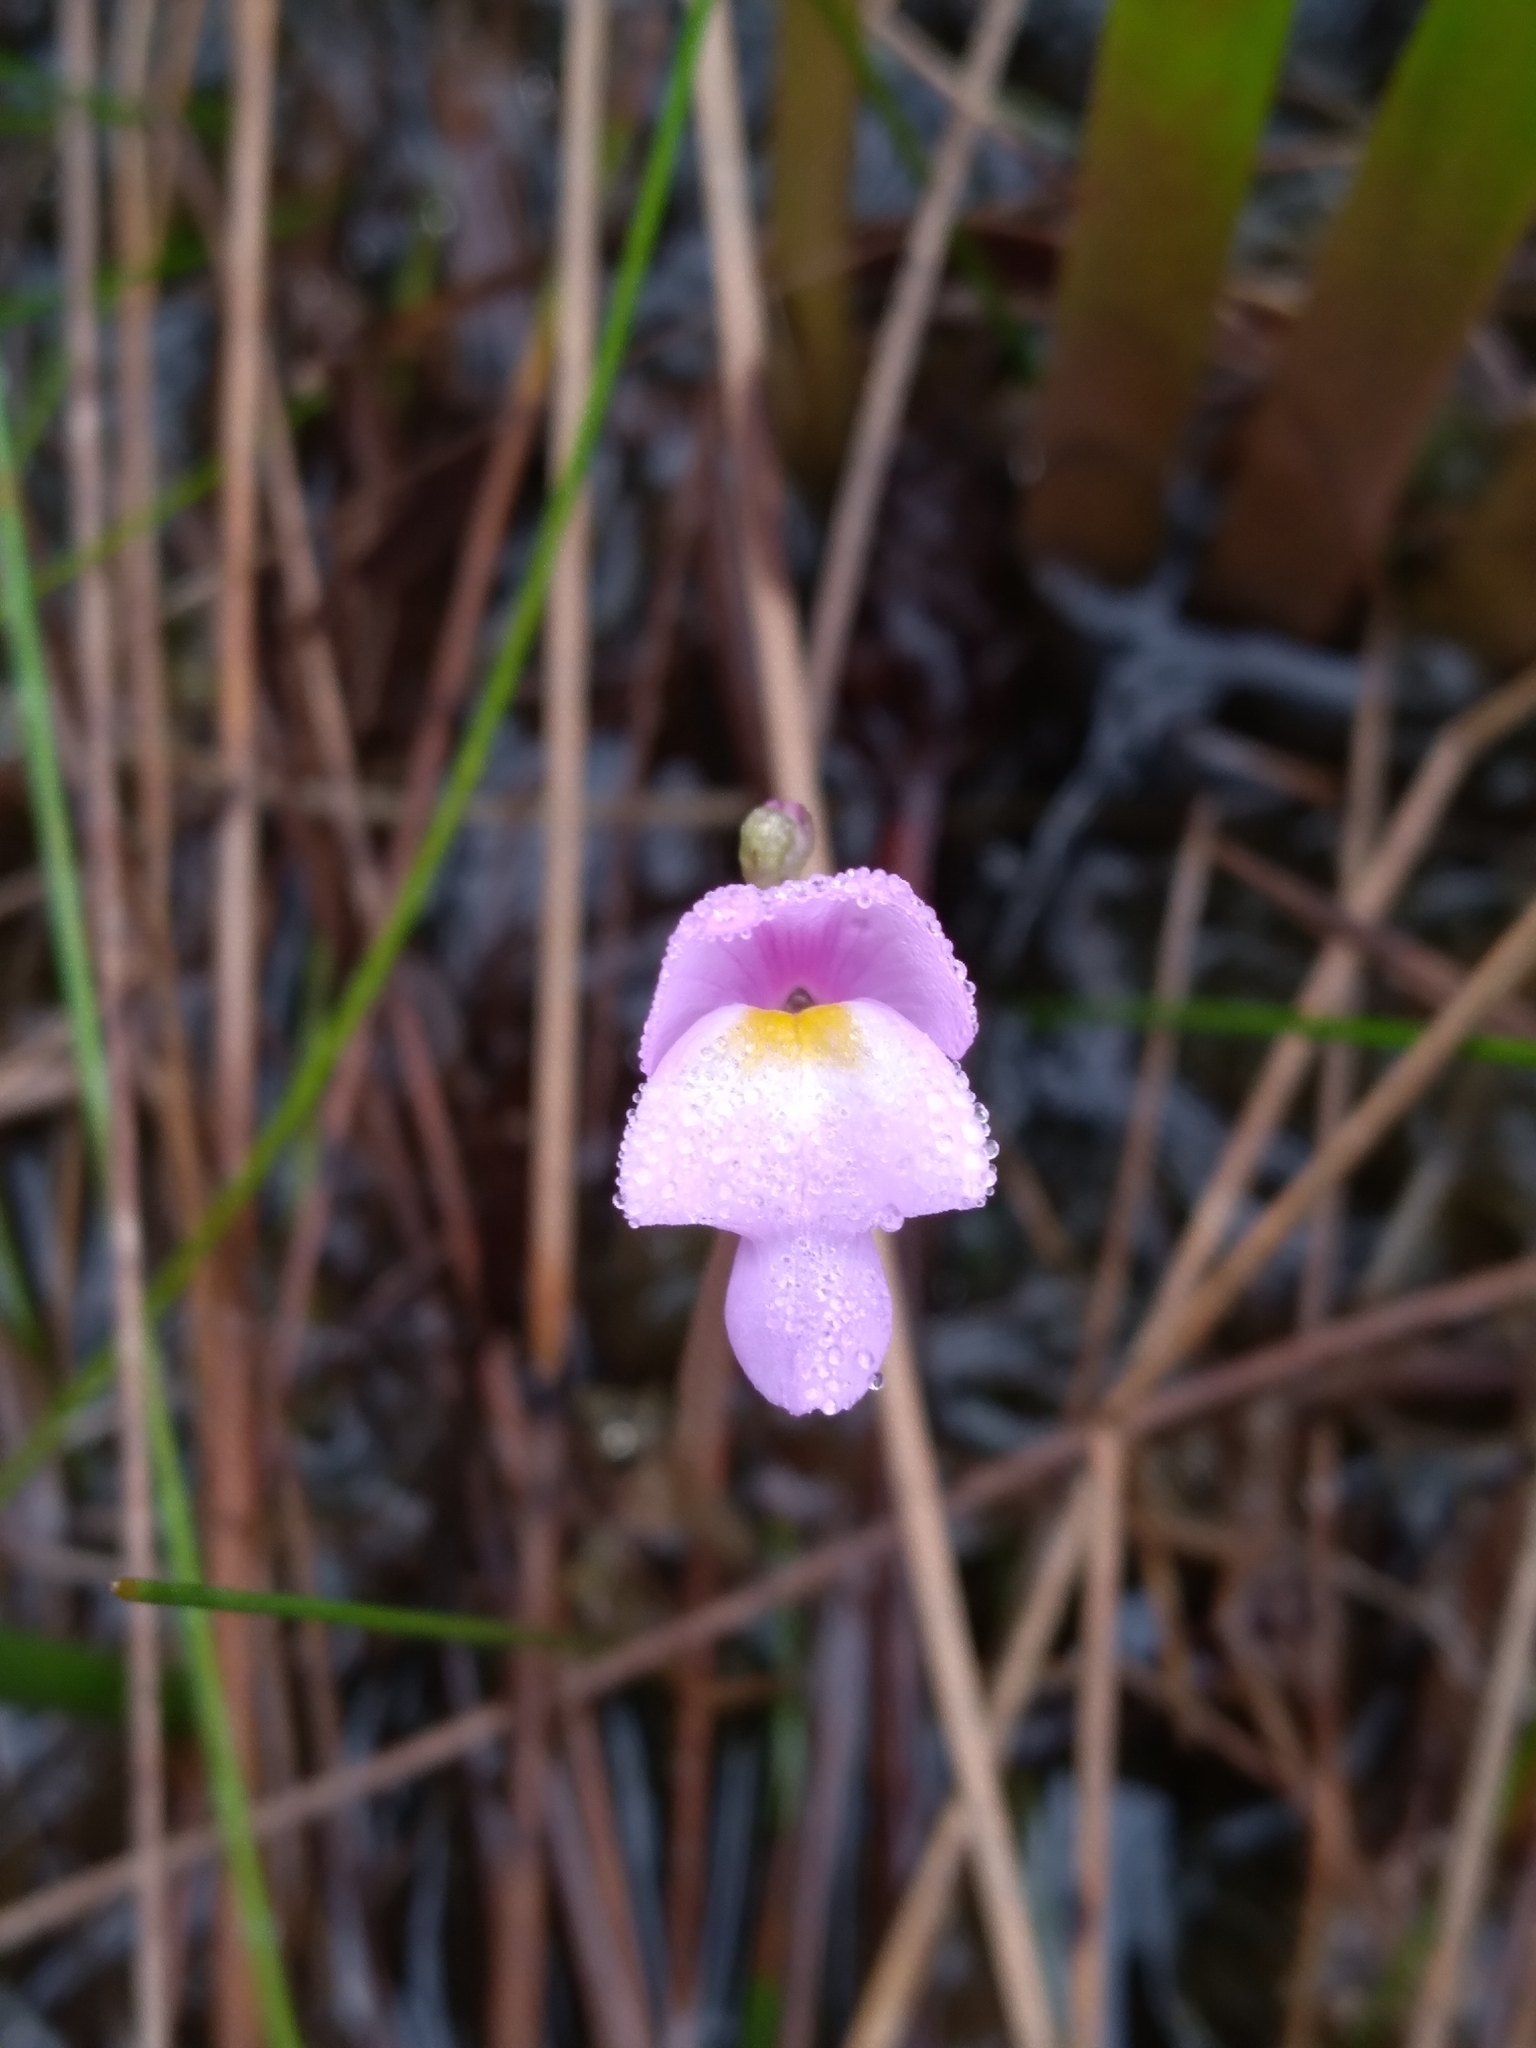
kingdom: Plantae
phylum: Tracheophyta
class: Magnoliopsida
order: Lamiales
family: Lentibulariaceae
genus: Utricularia
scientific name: Utricularia purpurea
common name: Eastern purple bladderwort
